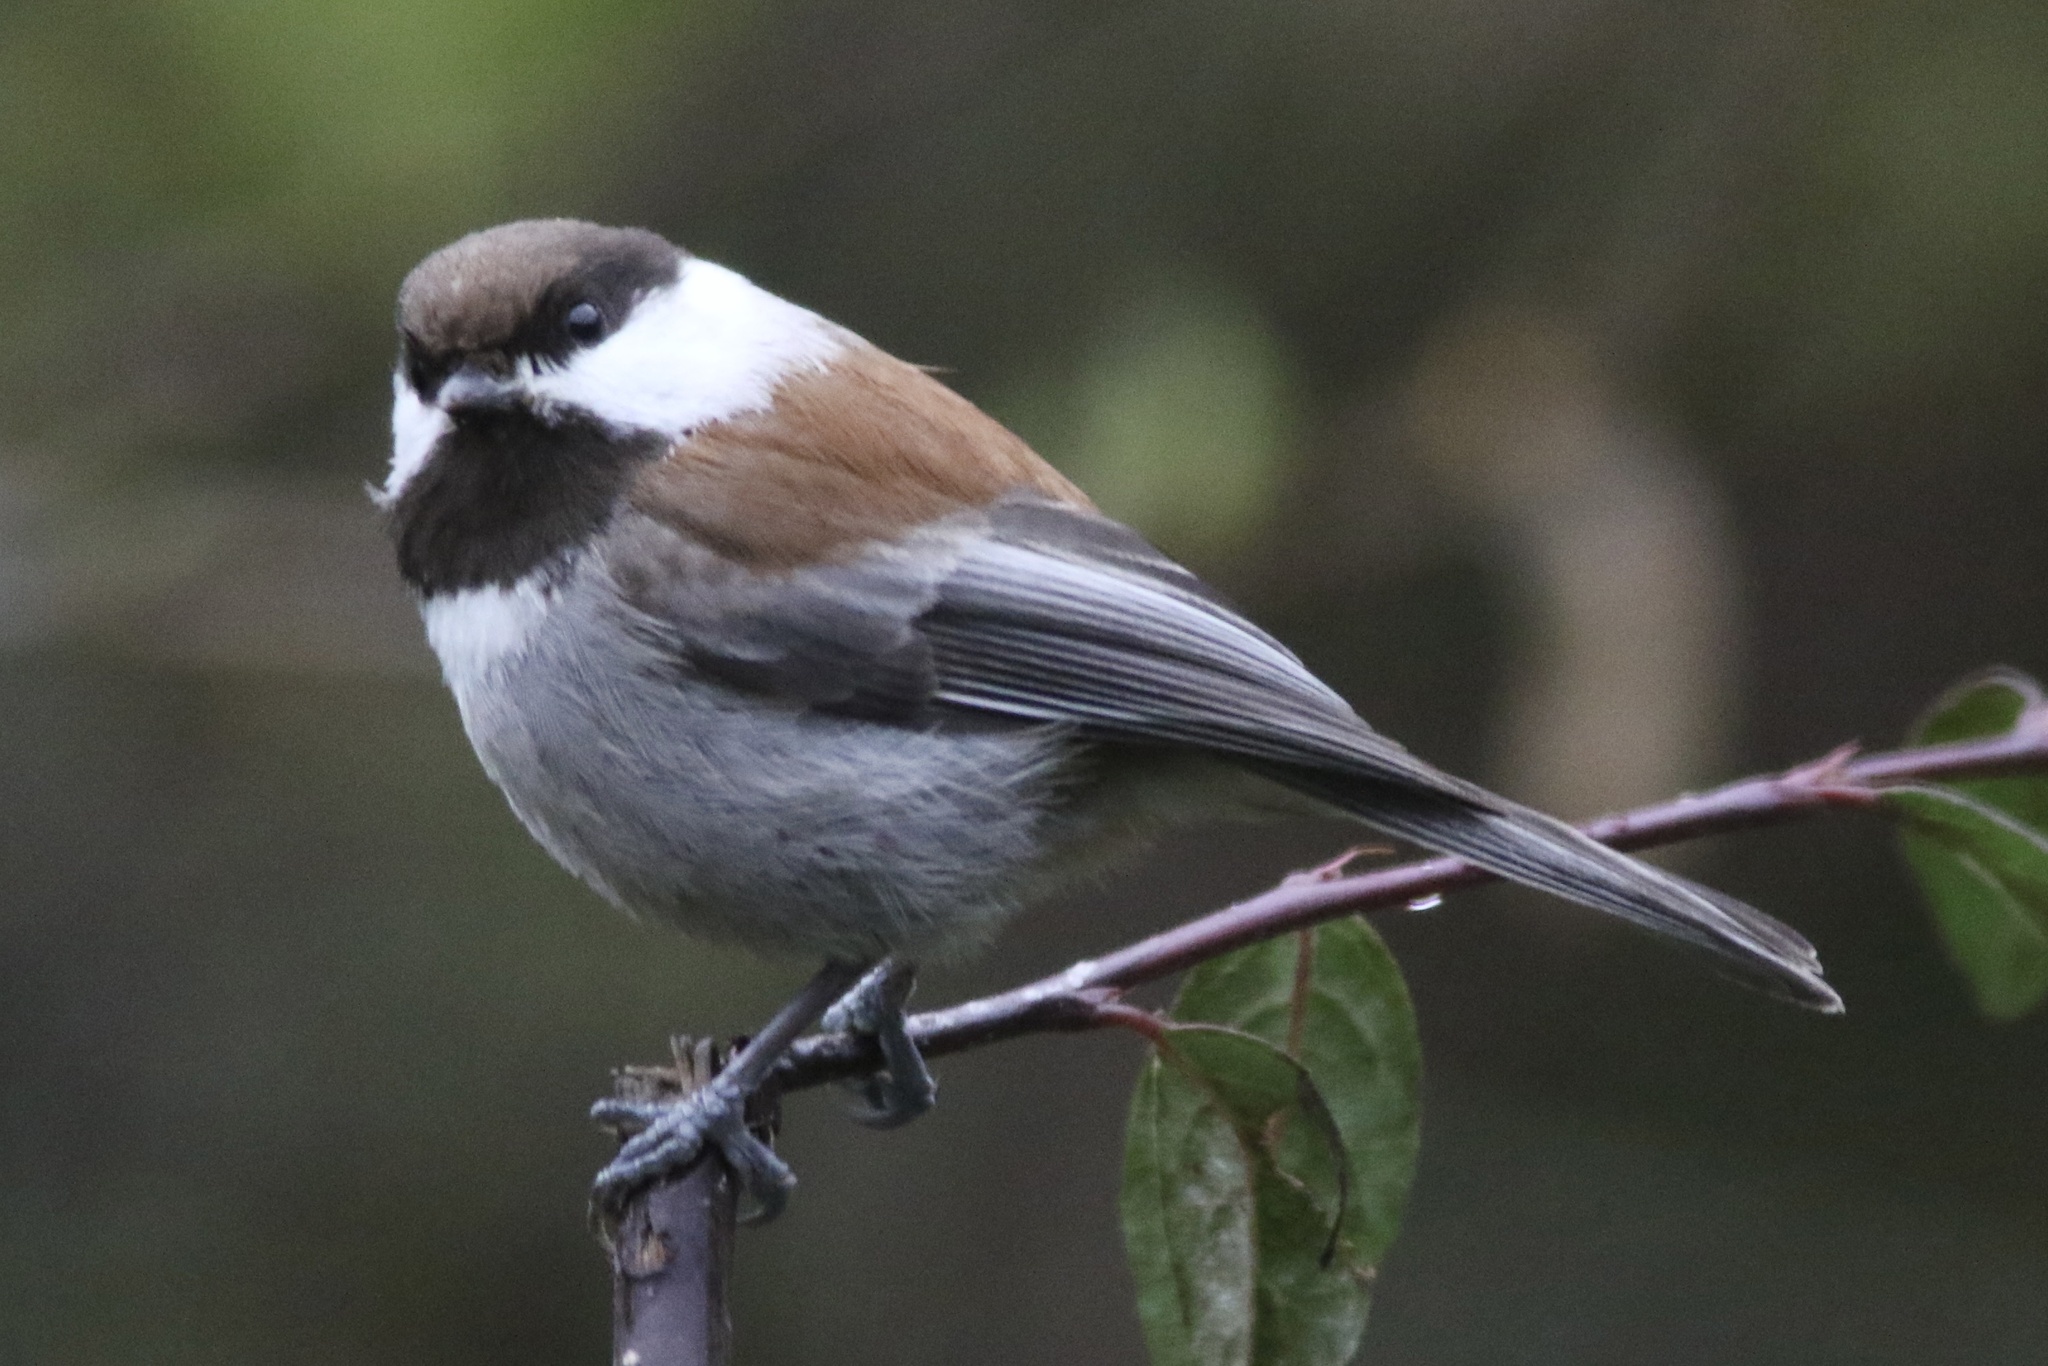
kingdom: Animalia
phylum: Chordata
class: Aves
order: Passeriformes
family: Paridae
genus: Poecile
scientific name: Poecile rufescens
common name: Chestnut-backed chickadee
